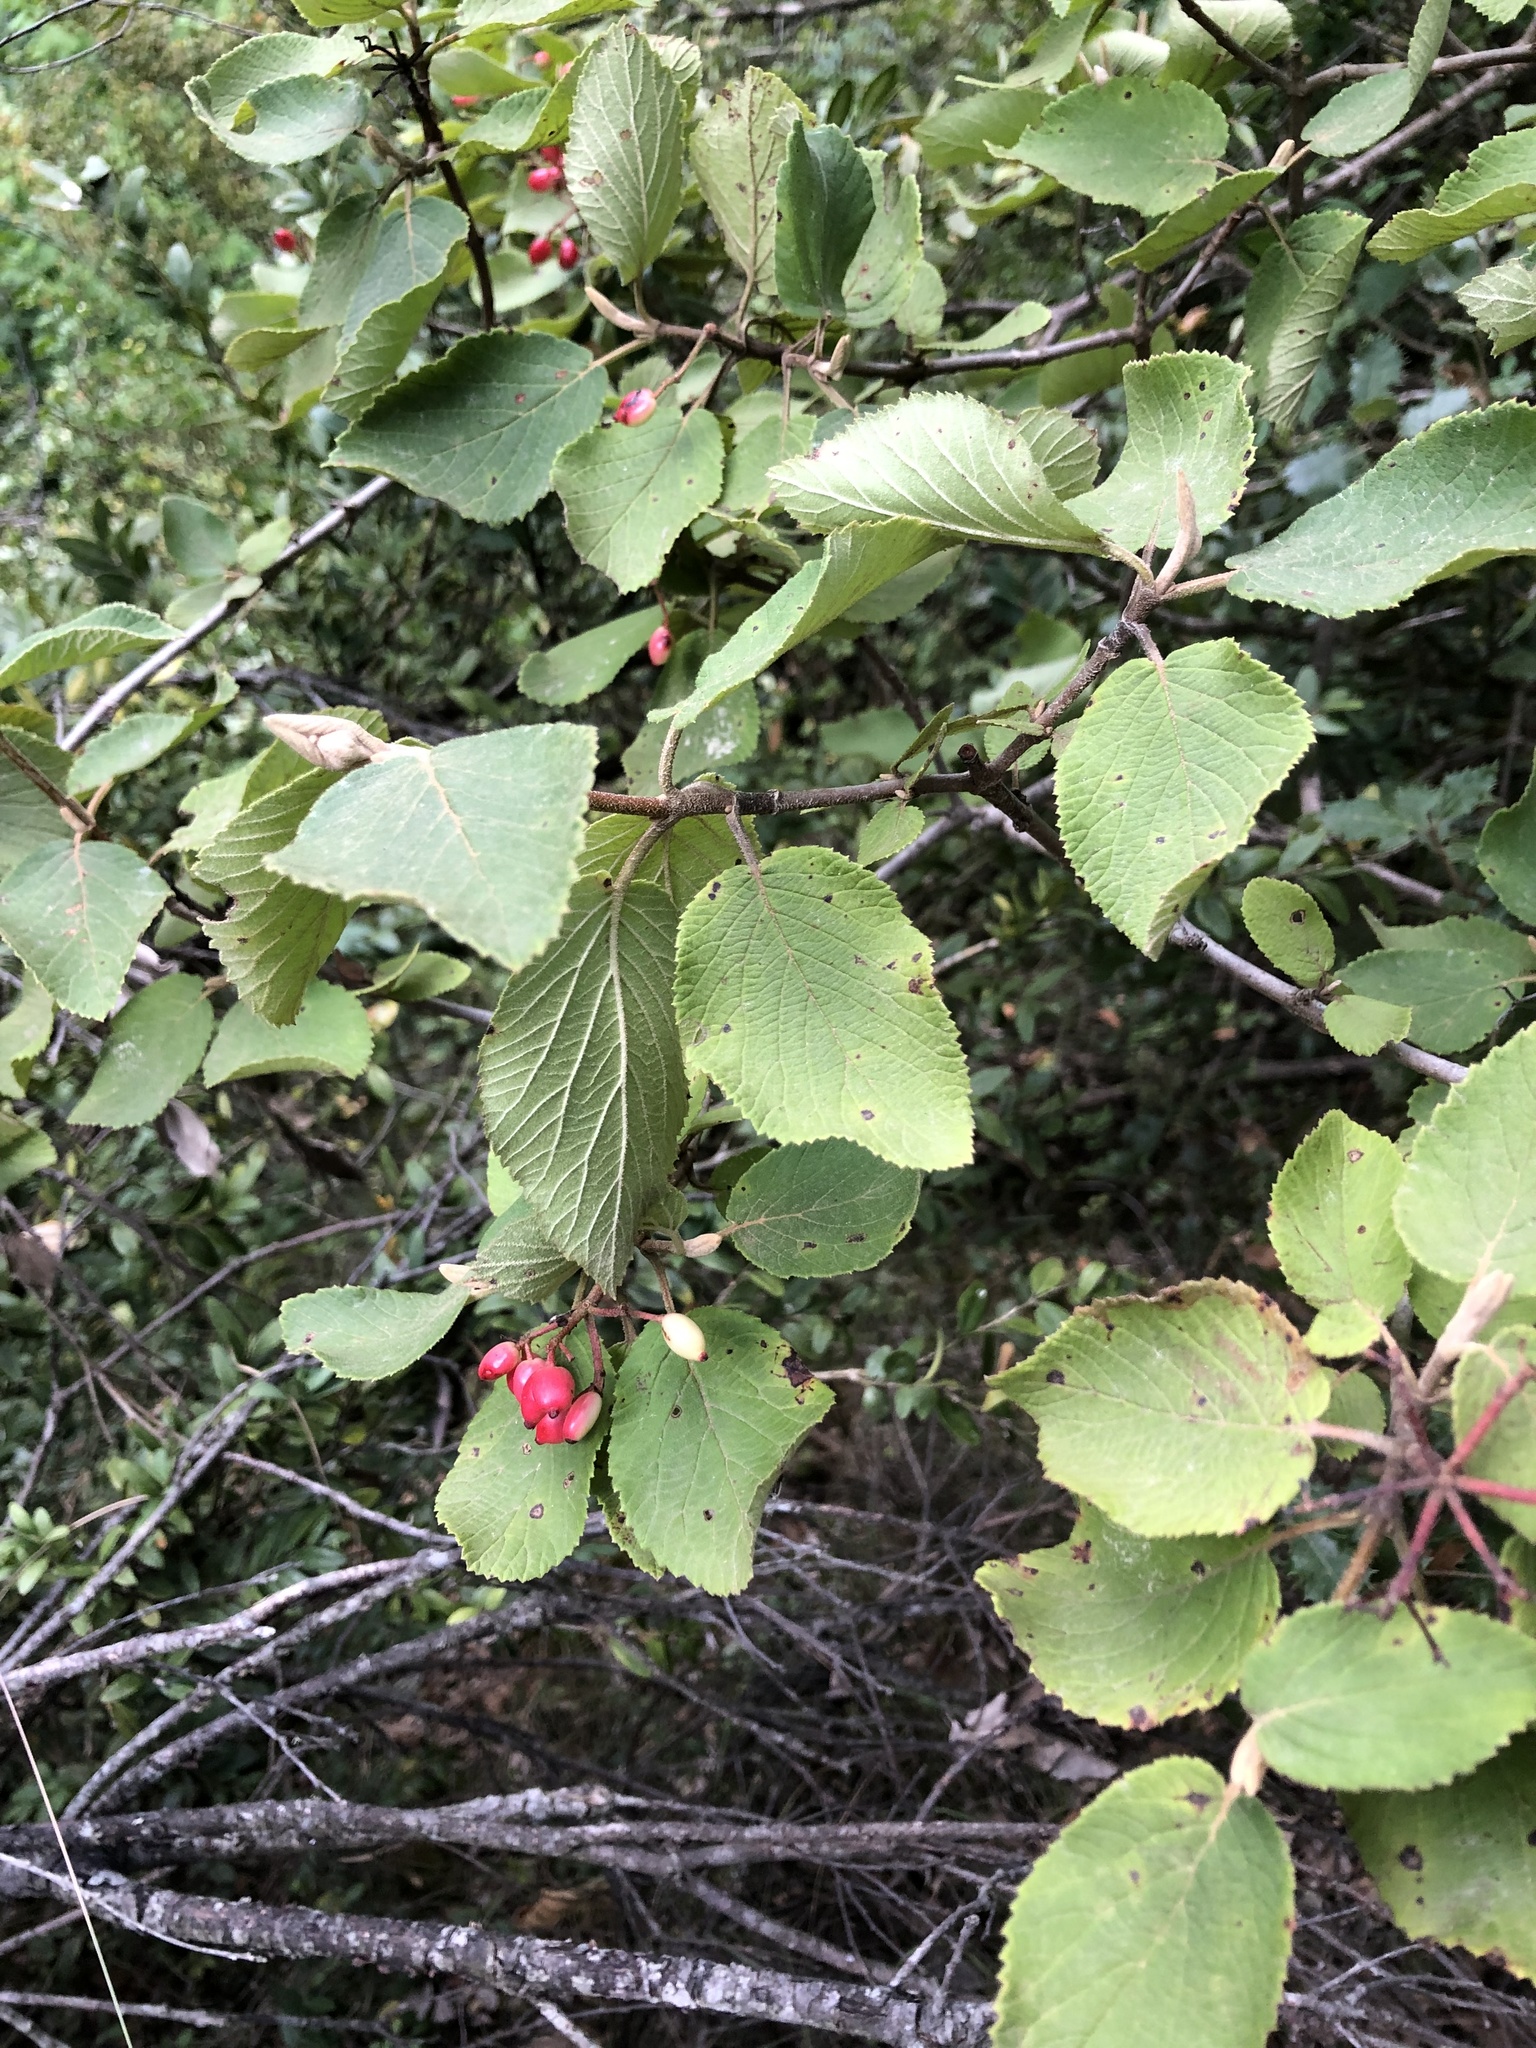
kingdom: Plantae
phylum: Tracheophyta
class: Magnoliopsida
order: Dipsacales
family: Viburnaceae
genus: Viburnum
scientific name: Viburnum lantana
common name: Wayfaring tree
